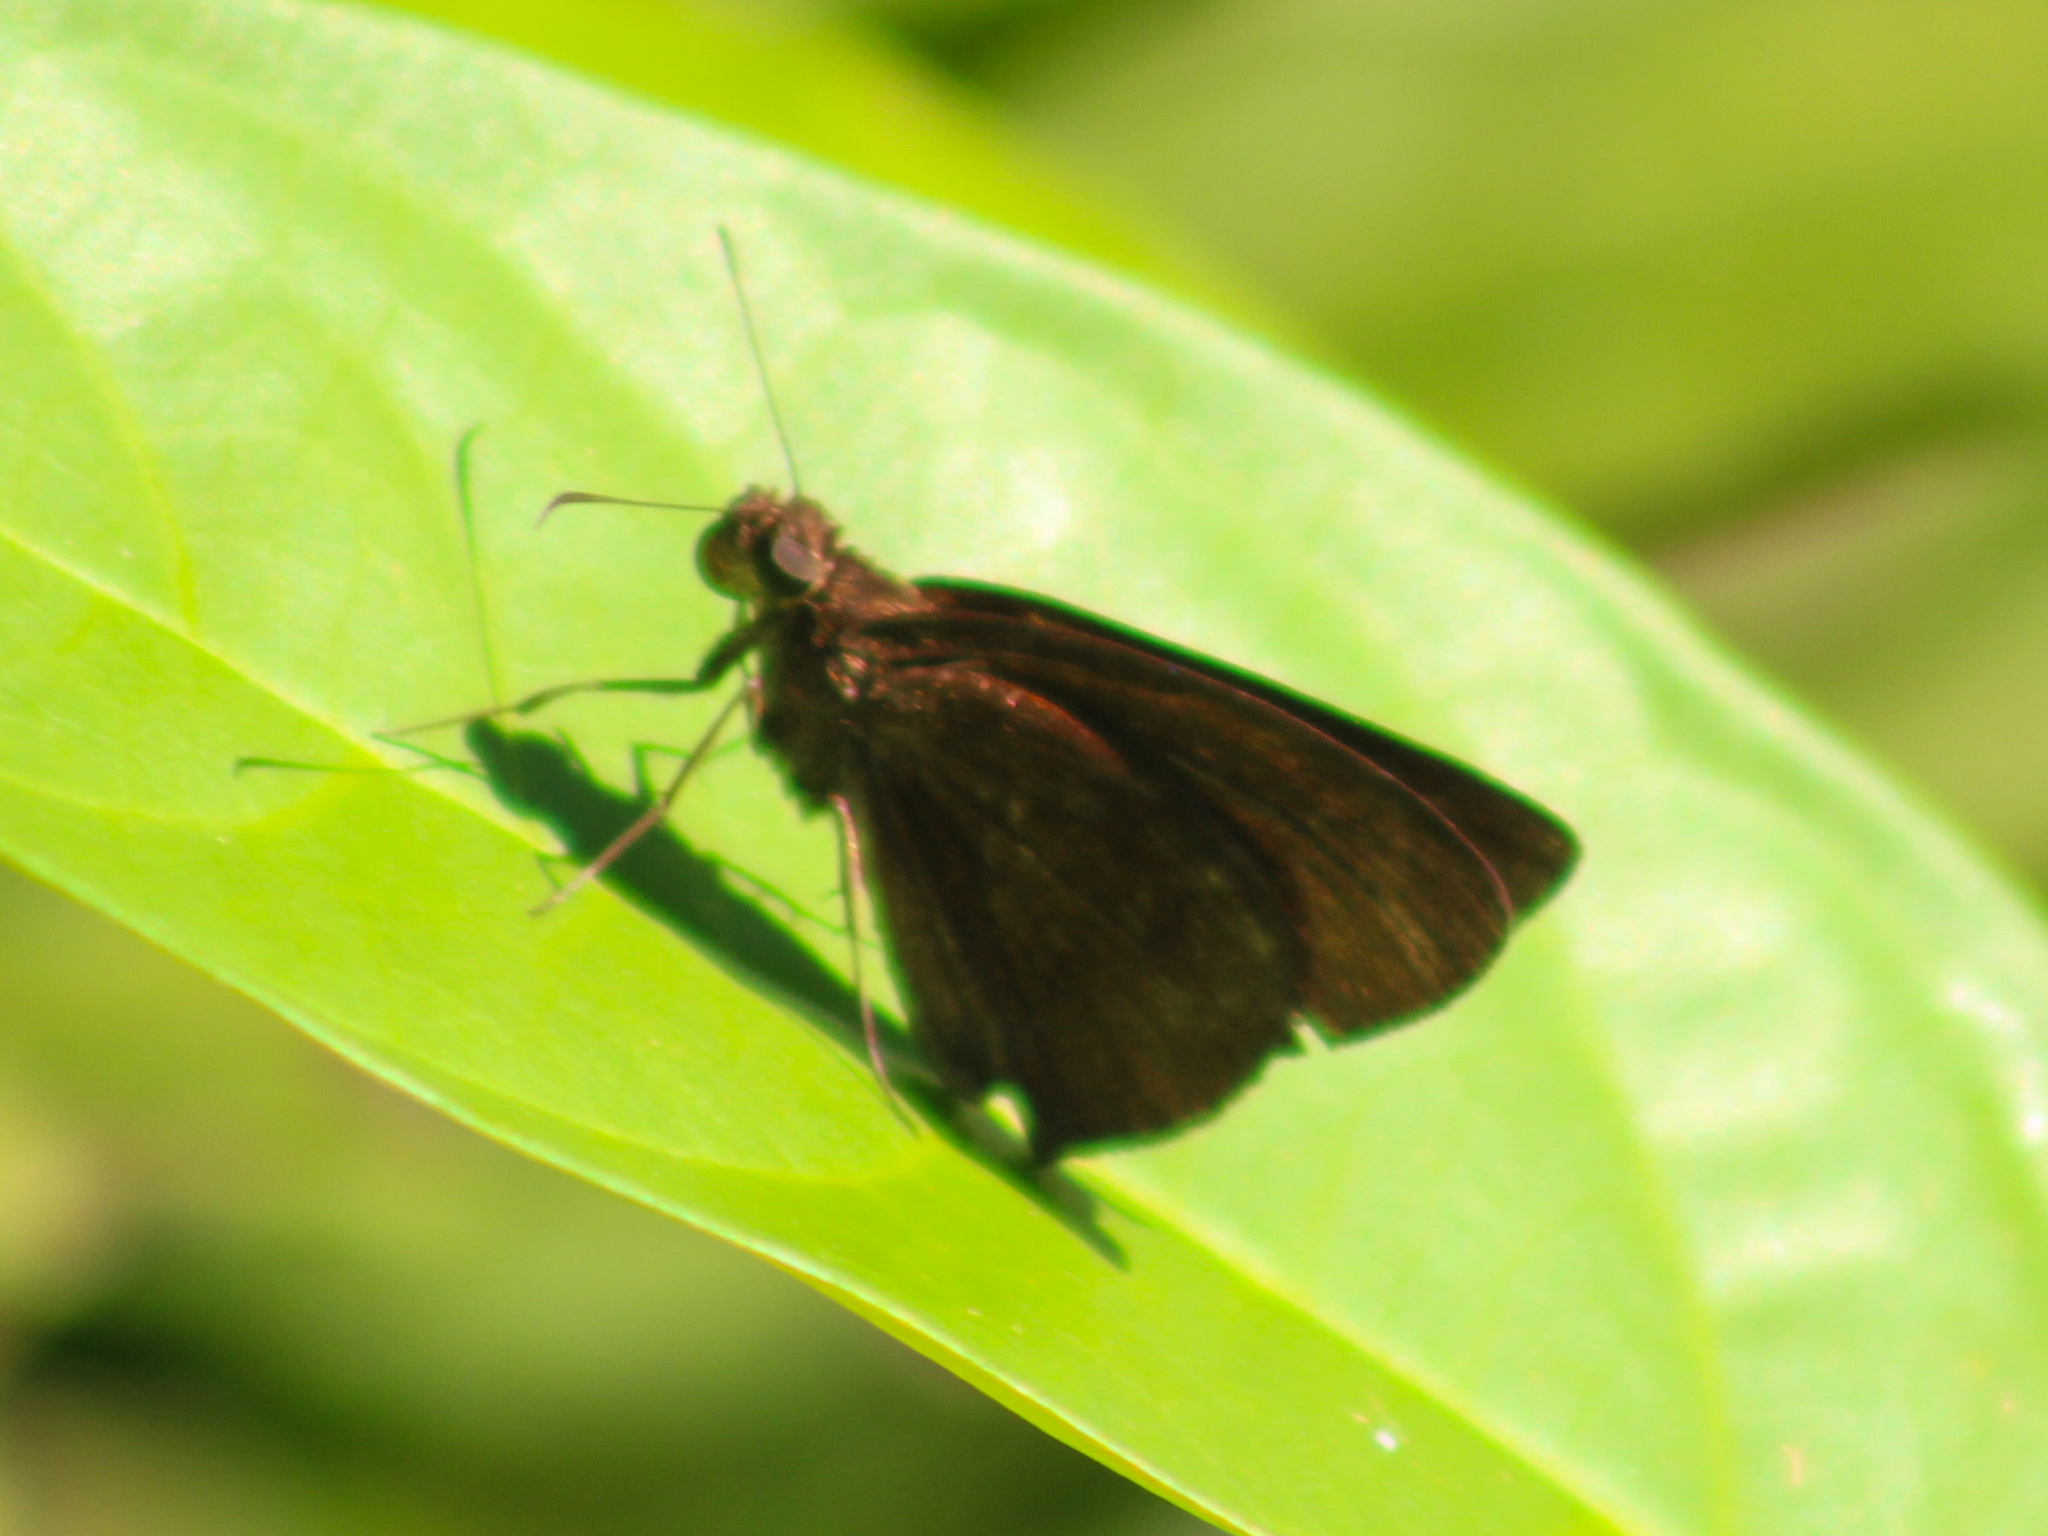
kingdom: Animalia
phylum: Arthropoda
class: Insecta
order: Lepidoptera
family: Hesperiidae
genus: Ancistroides
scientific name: Ancistroides nigrita
